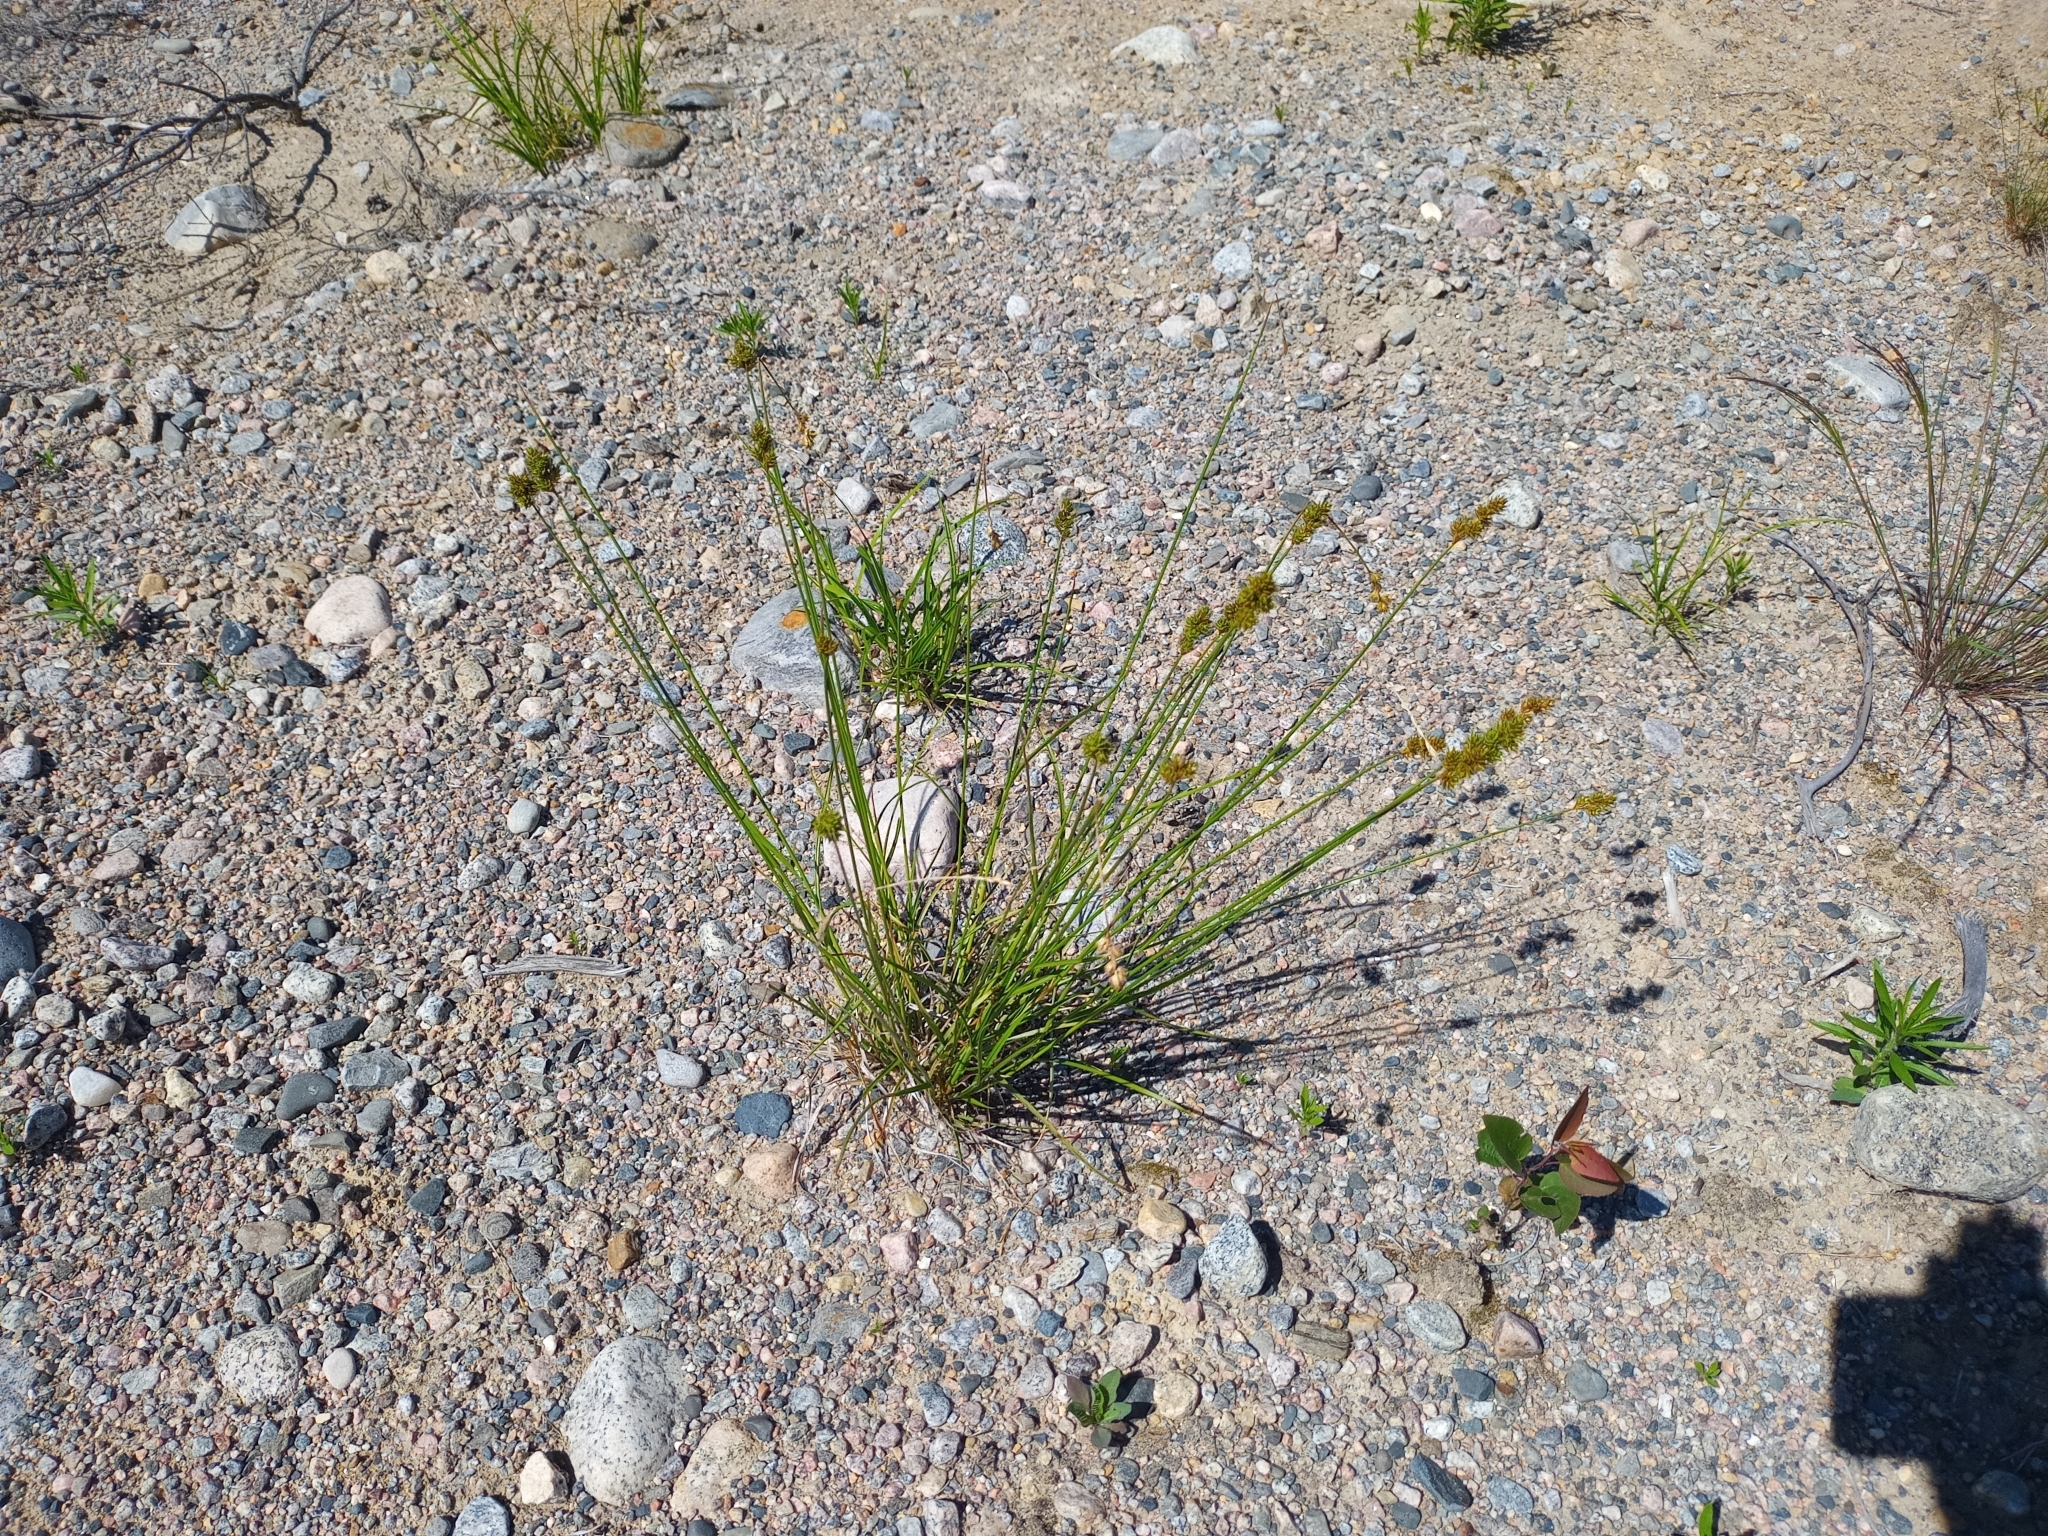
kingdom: Plantae
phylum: Tracheophyta
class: Liliopsida
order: Poales
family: Cyperaceae
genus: Carex
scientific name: Carex adusta
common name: Browned sedge
